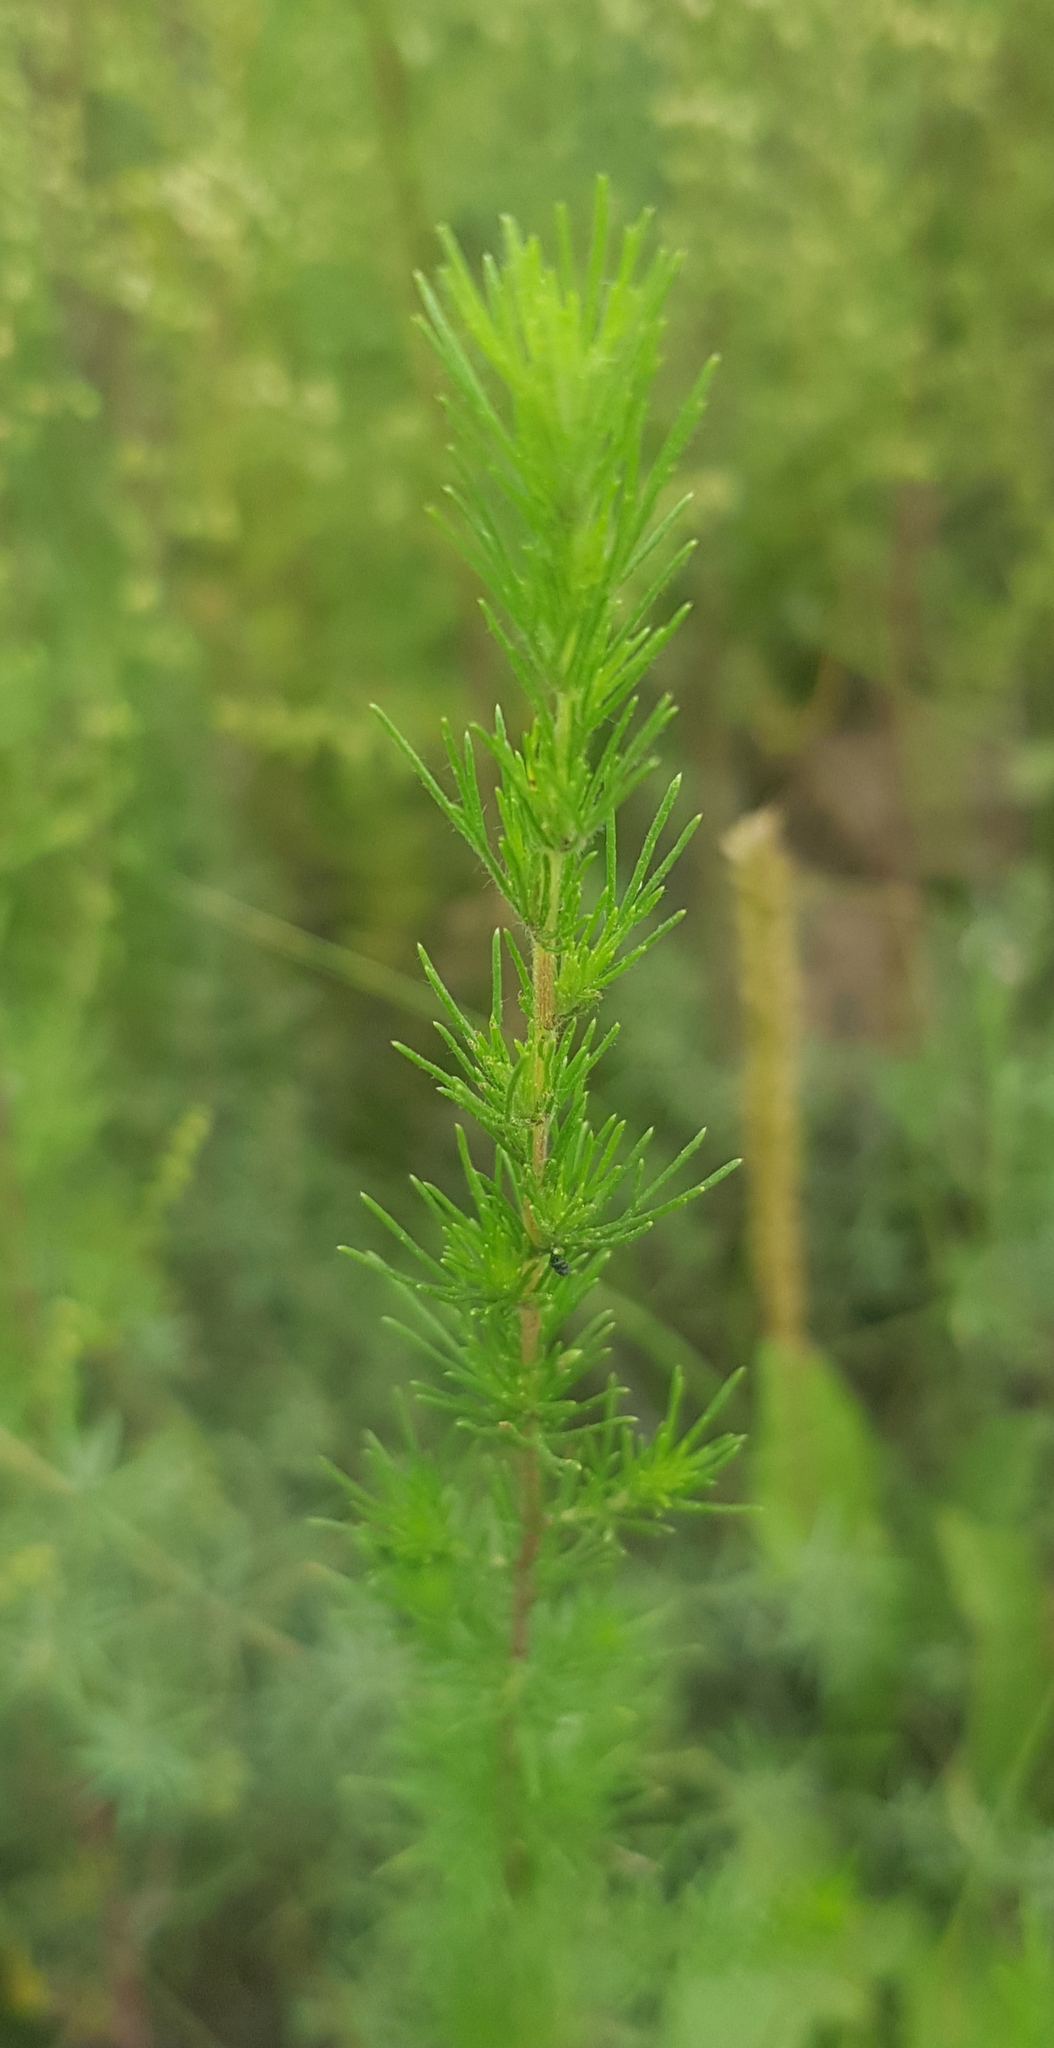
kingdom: Plantae
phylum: Tracheophyta
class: Magnoliopsida
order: Asterales
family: Asteraceae
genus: Neopallasia
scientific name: Neopallasia pectinata
